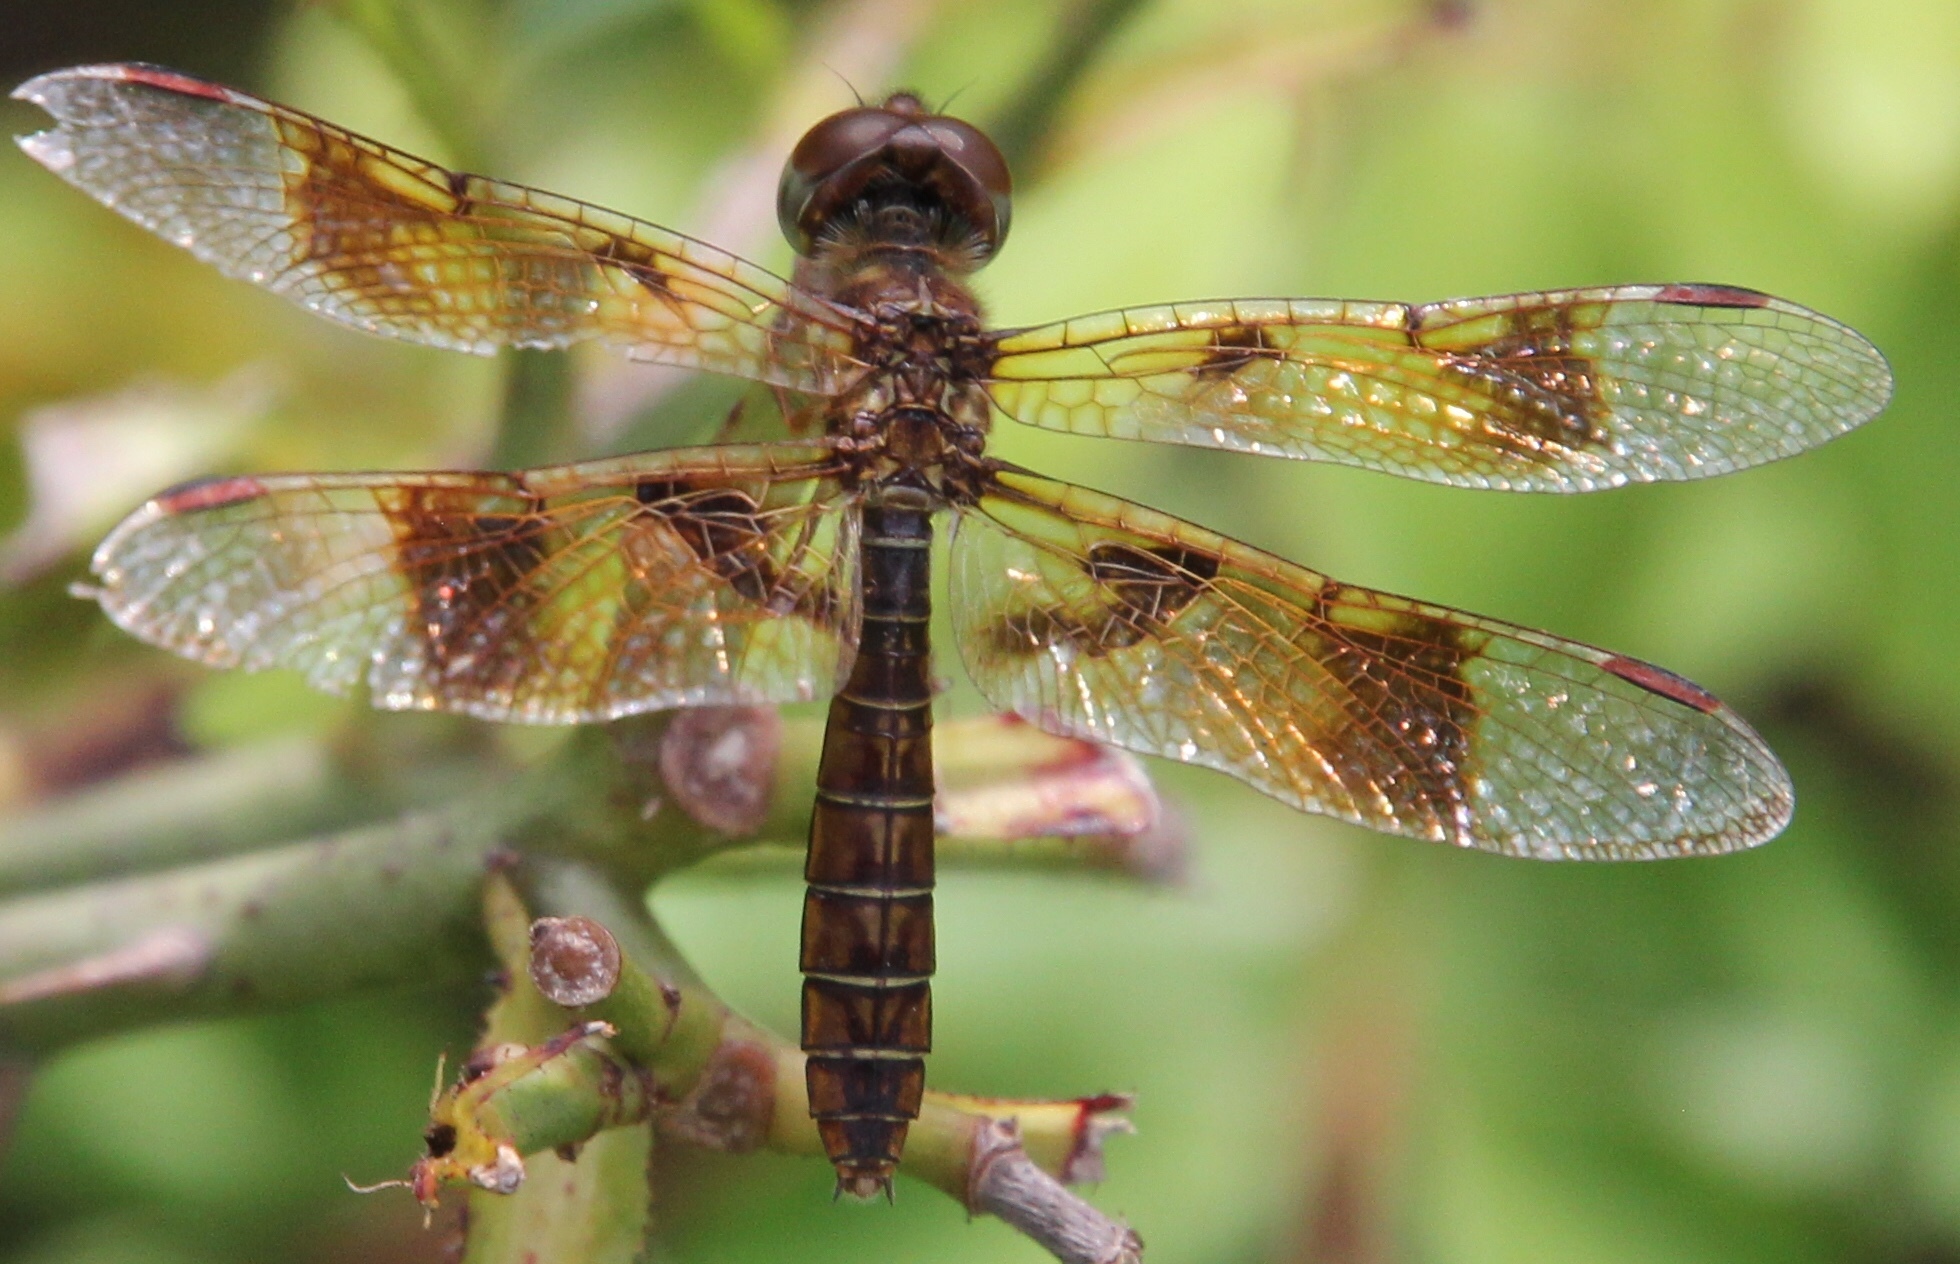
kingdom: Animalia
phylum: Arthropoda
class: Insecta
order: Odonata
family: Libellulidae
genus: Perithemis
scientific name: Perithemis tenera
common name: Eastern amberwing
